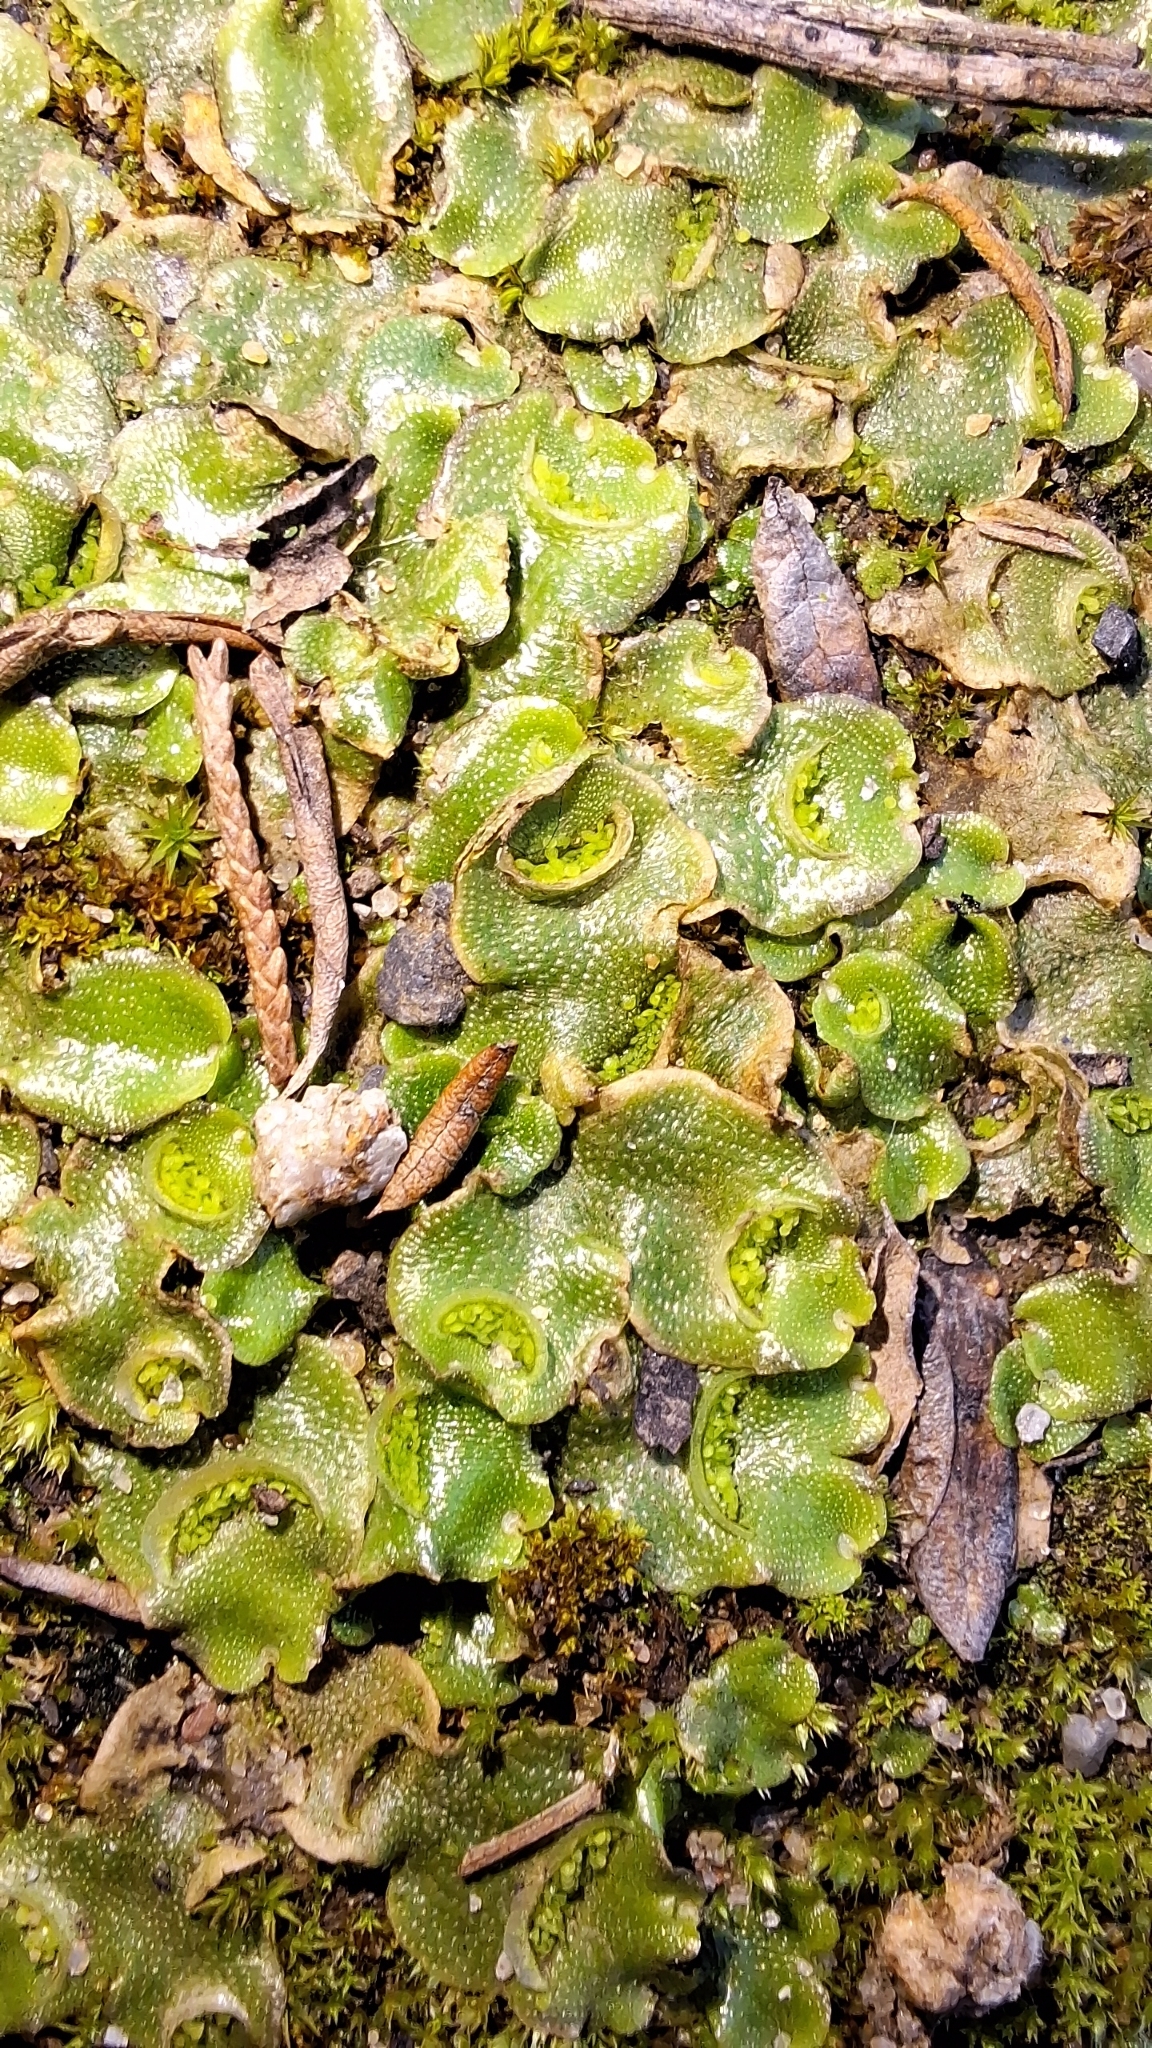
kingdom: Plantae
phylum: Marchantiophyta
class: Marchantiopsida
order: Lunulariales
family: Lunulariaceae
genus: Lunularia
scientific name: Lunularia cruciata
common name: Crescent-cup liverwort
